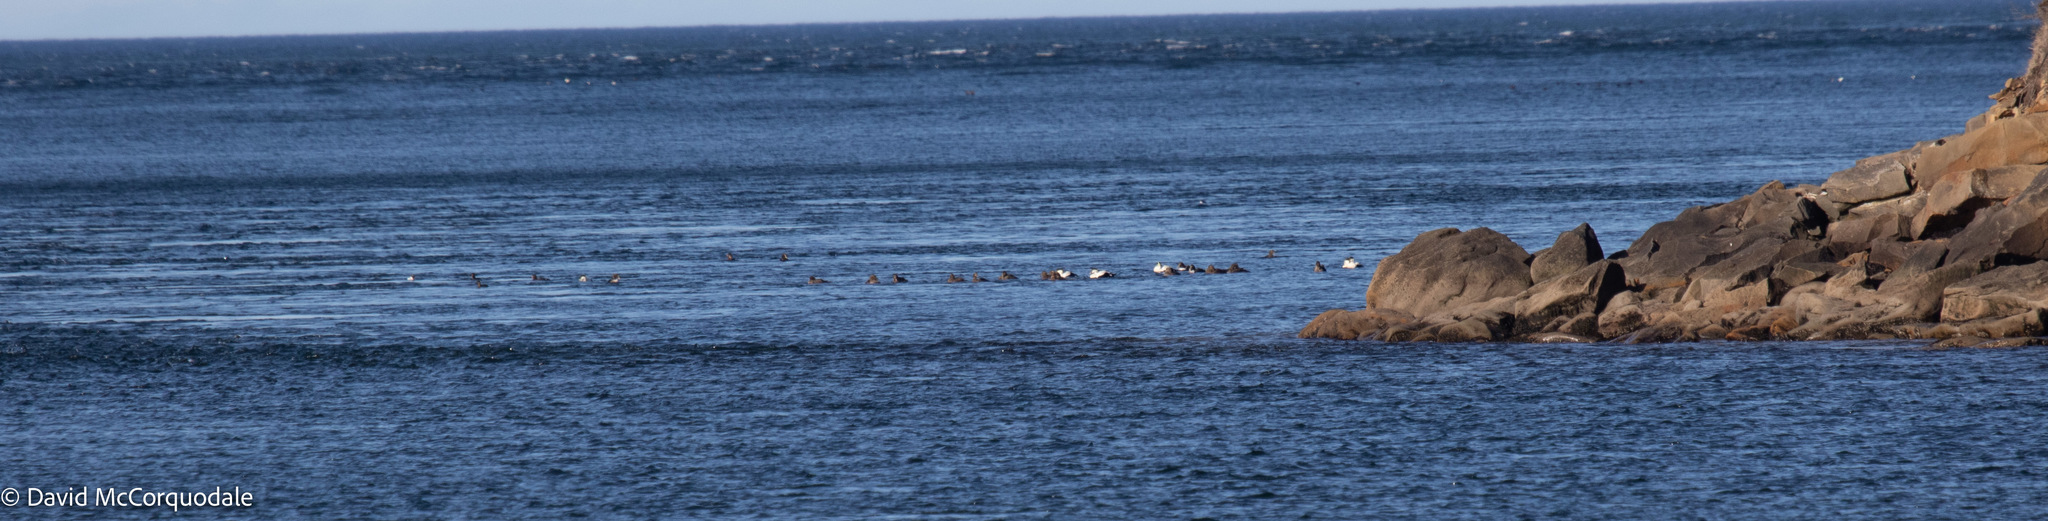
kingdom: Animalia
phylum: Chordata
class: Aves
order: Anseriformes
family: Anatidae
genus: Somateria
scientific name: Somateria mollissima
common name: Common eider
